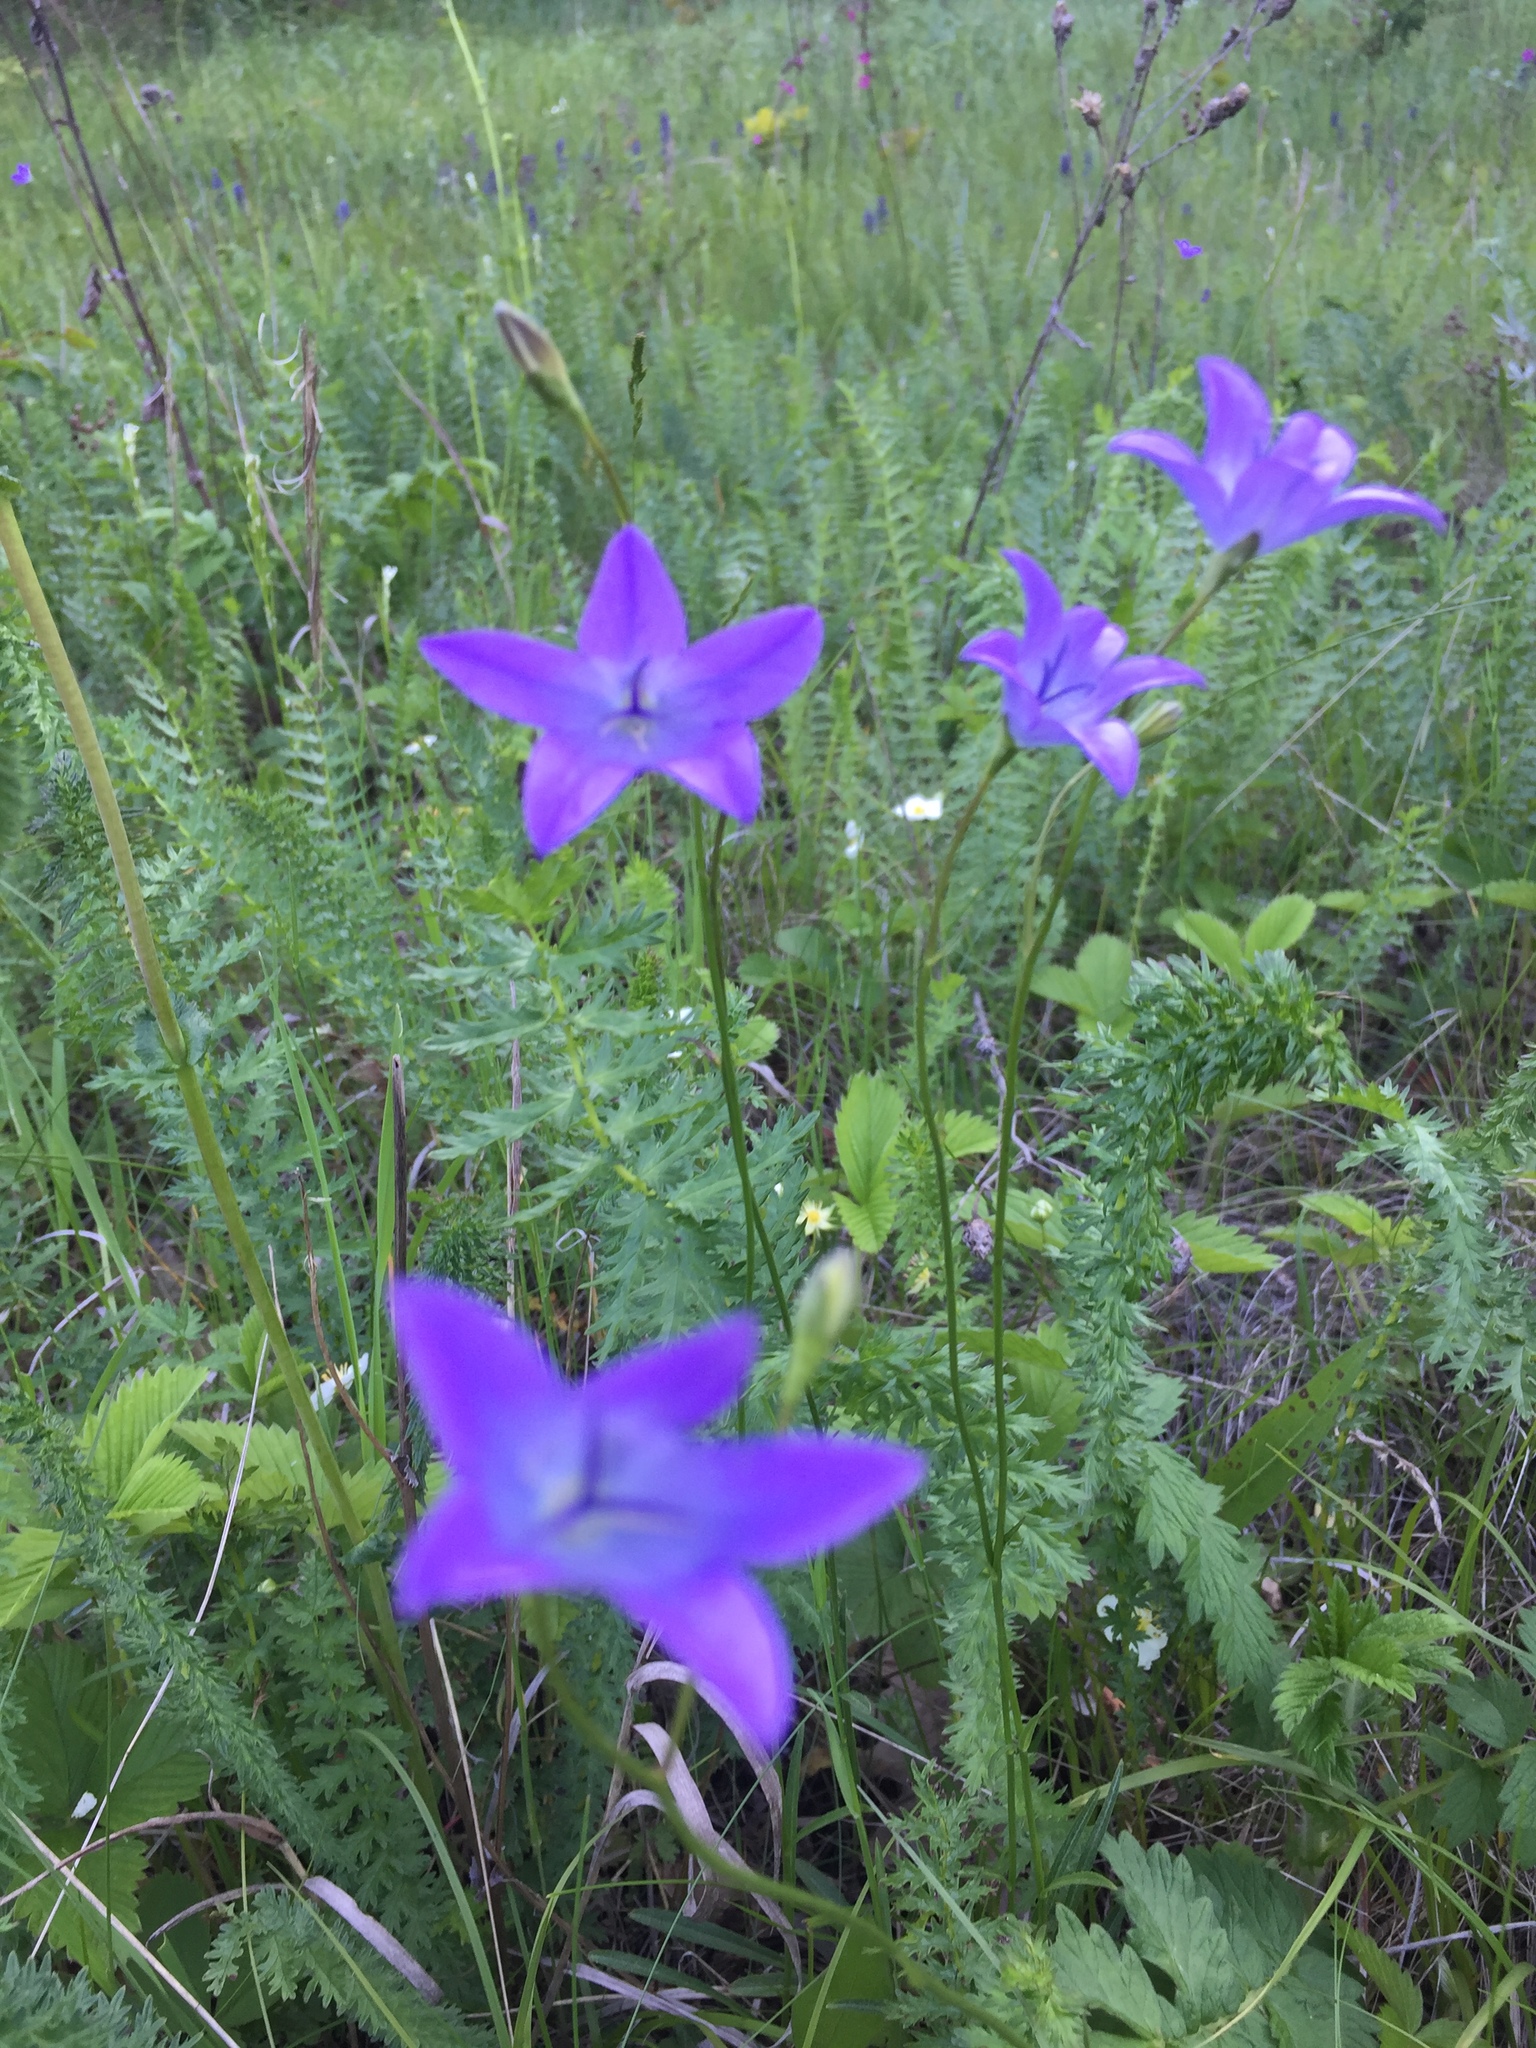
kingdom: Plantae
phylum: Tracheophyta
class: Magnoliopsida
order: Asterales
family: Campanulaceae
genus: Campanula
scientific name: Campanula stevenii
